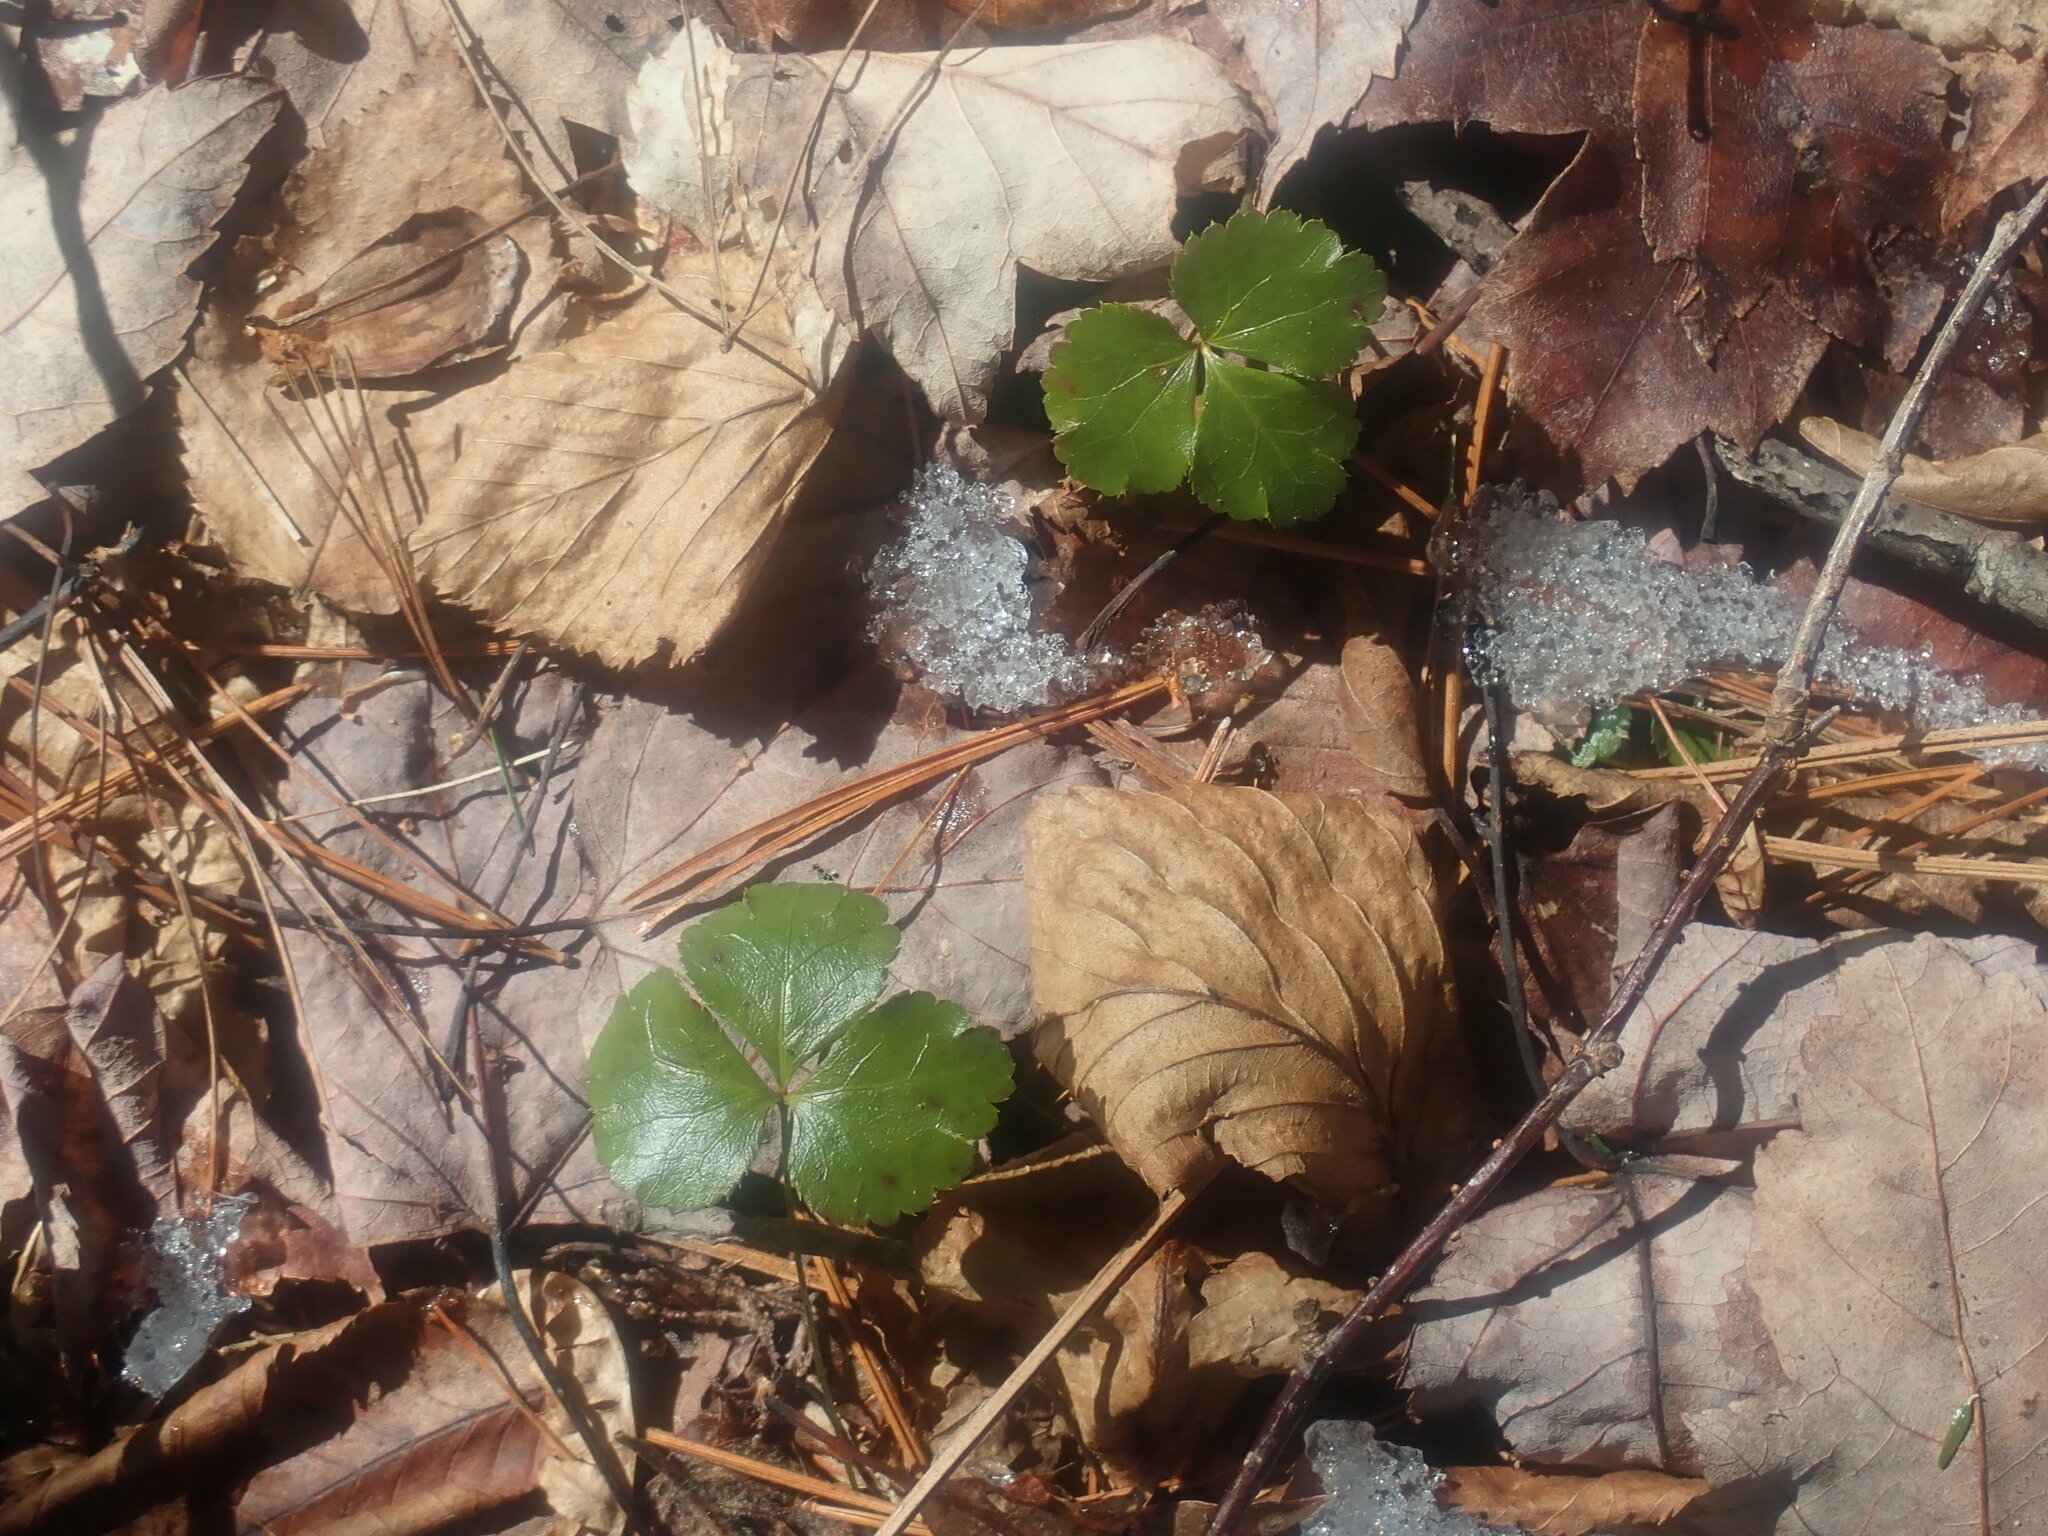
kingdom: Plantae
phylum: Tracheophyta
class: Magnoliopsida
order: Ranunculales
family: Ranunculaceae
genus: Coptis
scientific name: Coptis trifolia
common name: Canker-root
